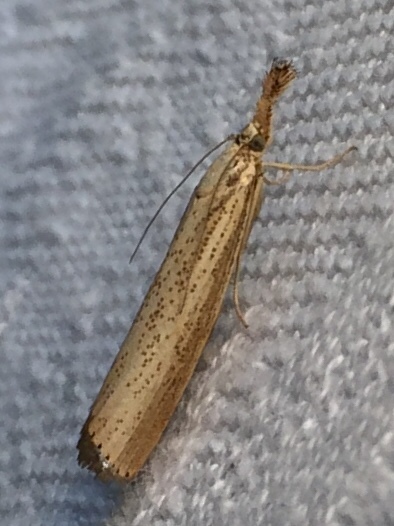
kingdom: Animalia
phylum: Arthropoda
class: Insecta
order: Lepidoptera
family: Crambidae
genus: Agriphila
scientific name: Agriphila vulgivagellus
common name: Vagabond crambus moth
